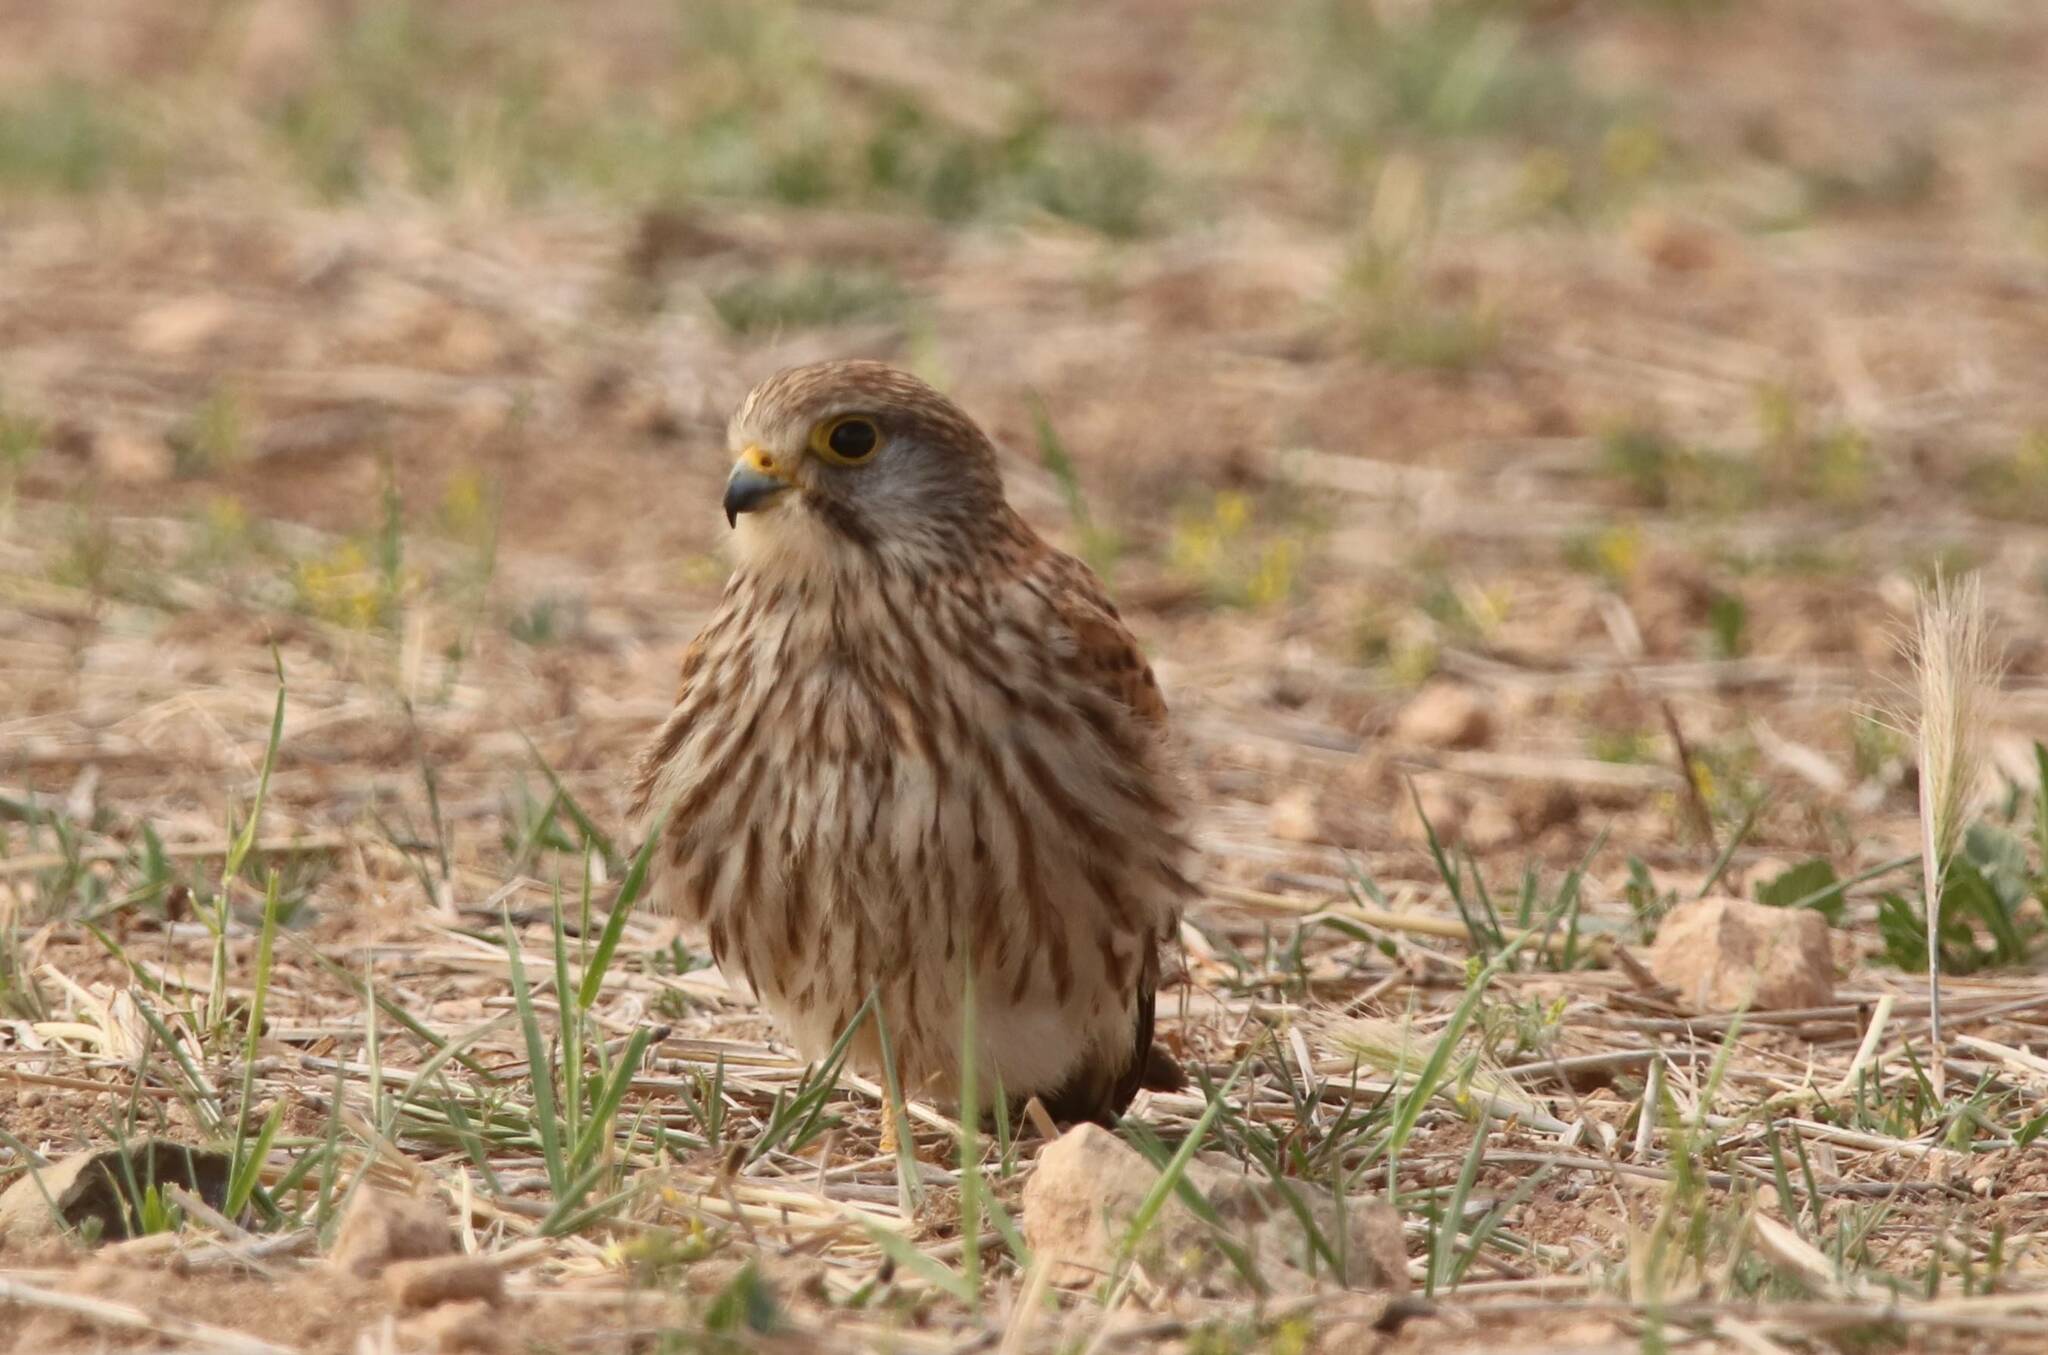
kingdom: Animalia
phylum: Chordata
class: Aves
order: Falconiformes
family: Falconidae
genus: Falco
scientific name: Falco tinnunculus
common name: Common kestrel
